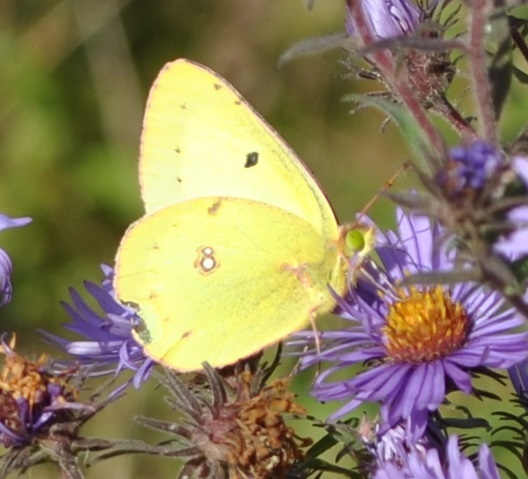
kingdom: Animalia
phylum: Arthropoda
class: Insecta
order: Lepidoptera
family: Pieridae
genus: Colias
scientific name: Colias philodice
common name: Clouded sulphur
